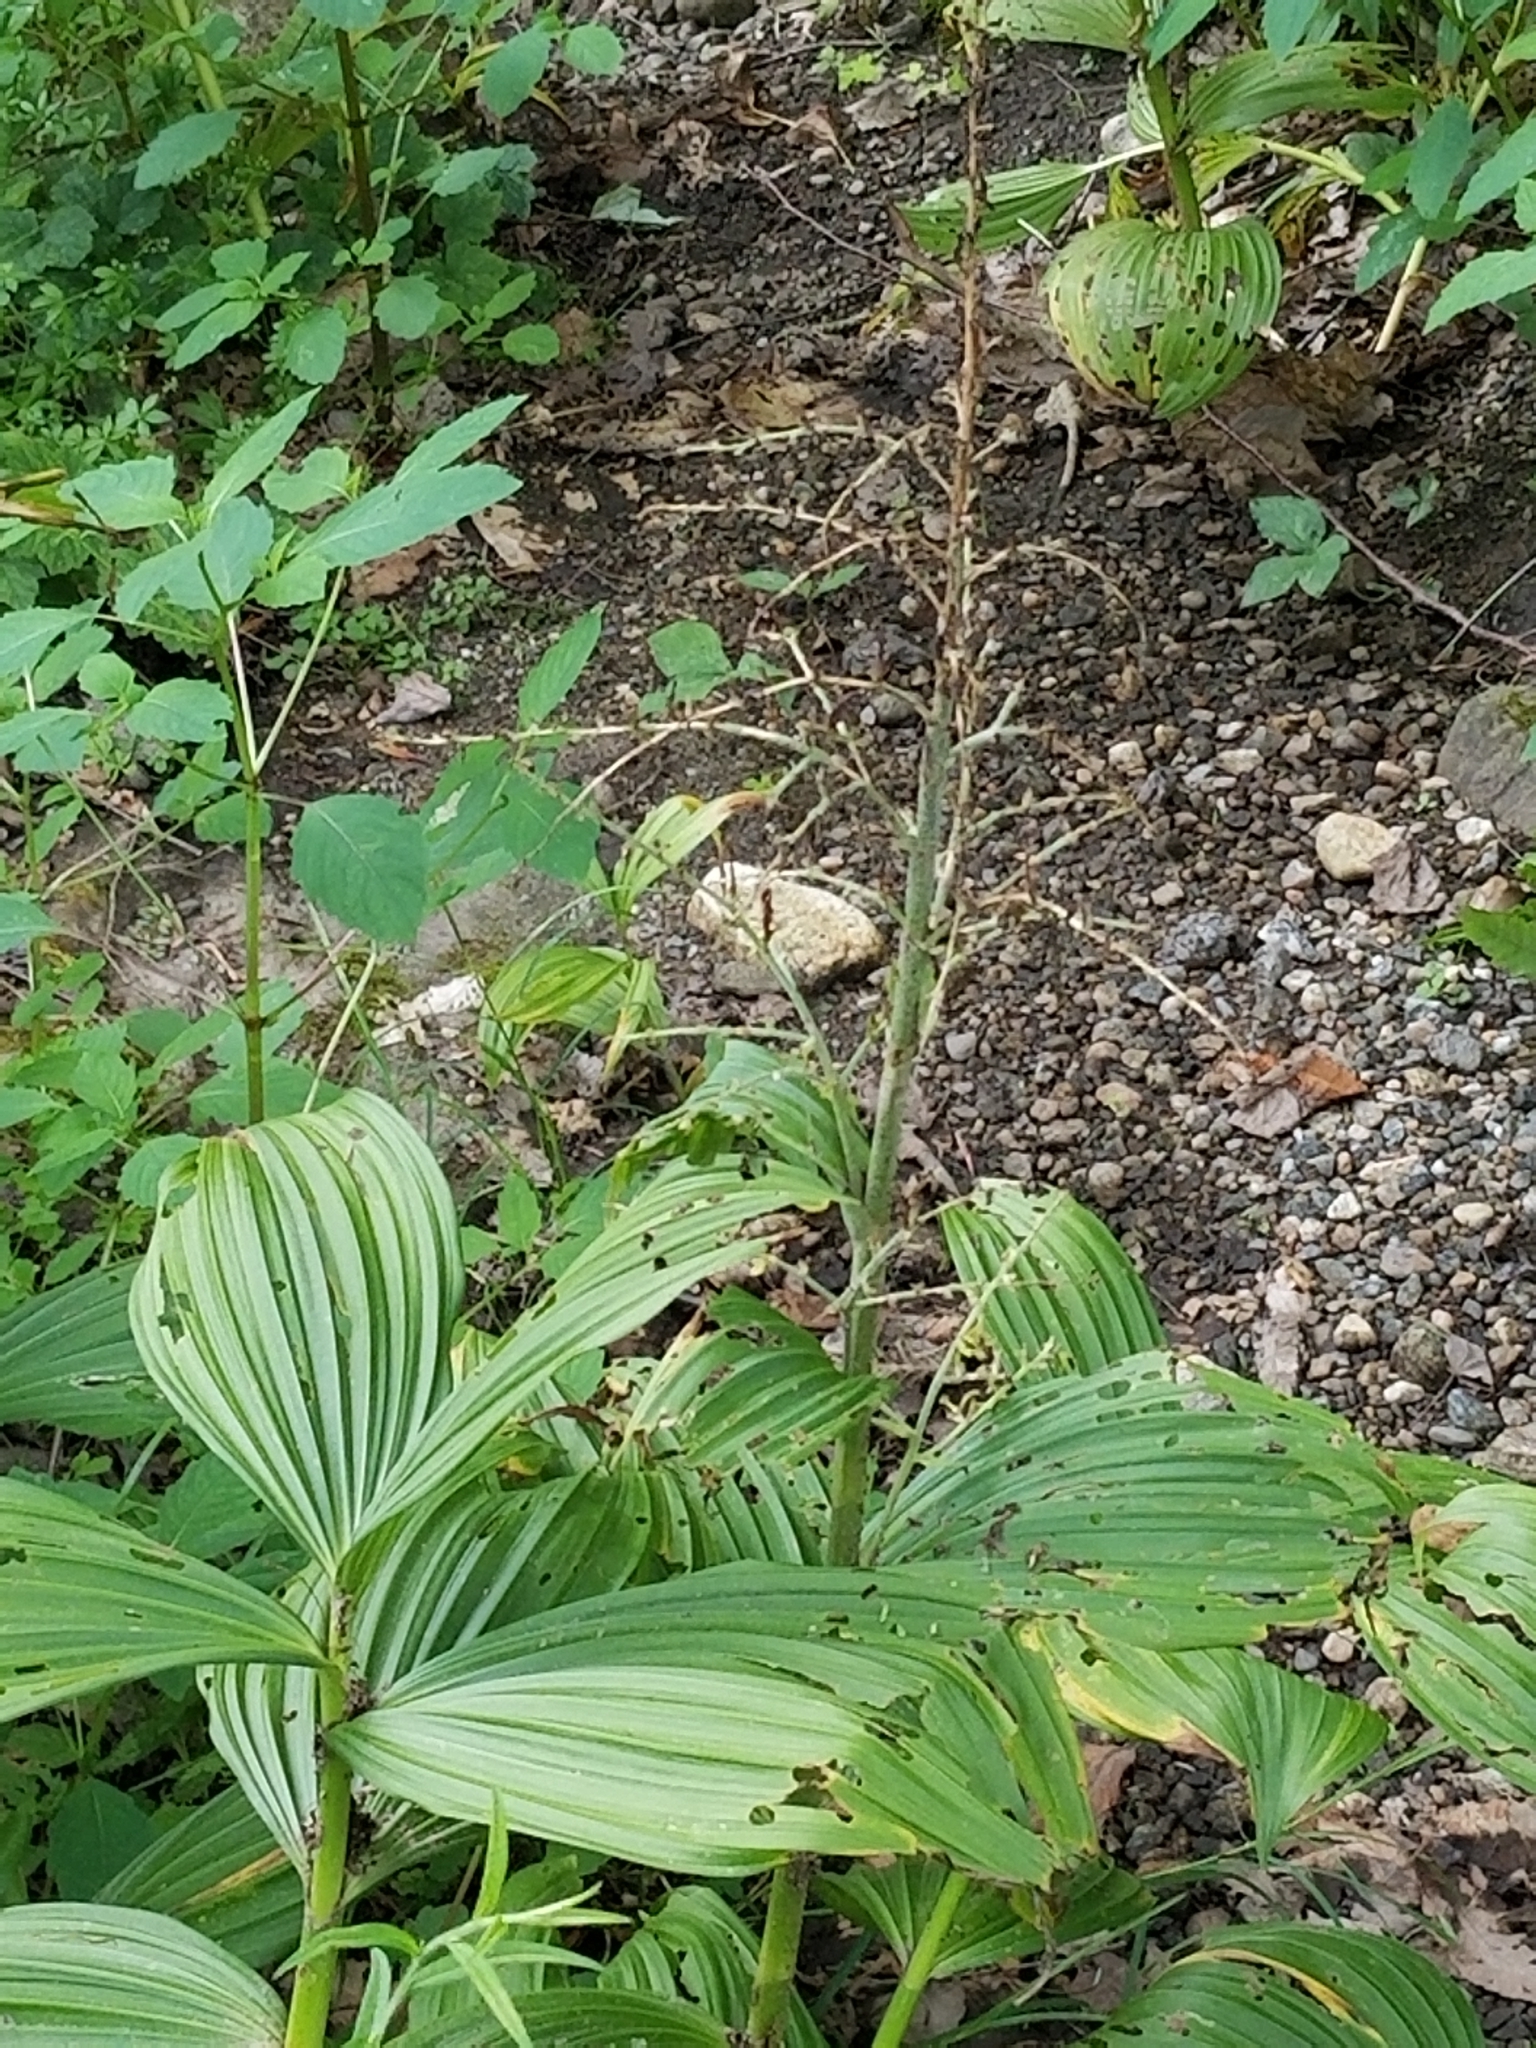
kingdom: Plantae
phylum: Tracheophyta
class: Liliopsida
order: Liliales
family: Melanthiaceae
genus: Veratrum
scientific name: Veratrum viride
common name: American false hellebore
